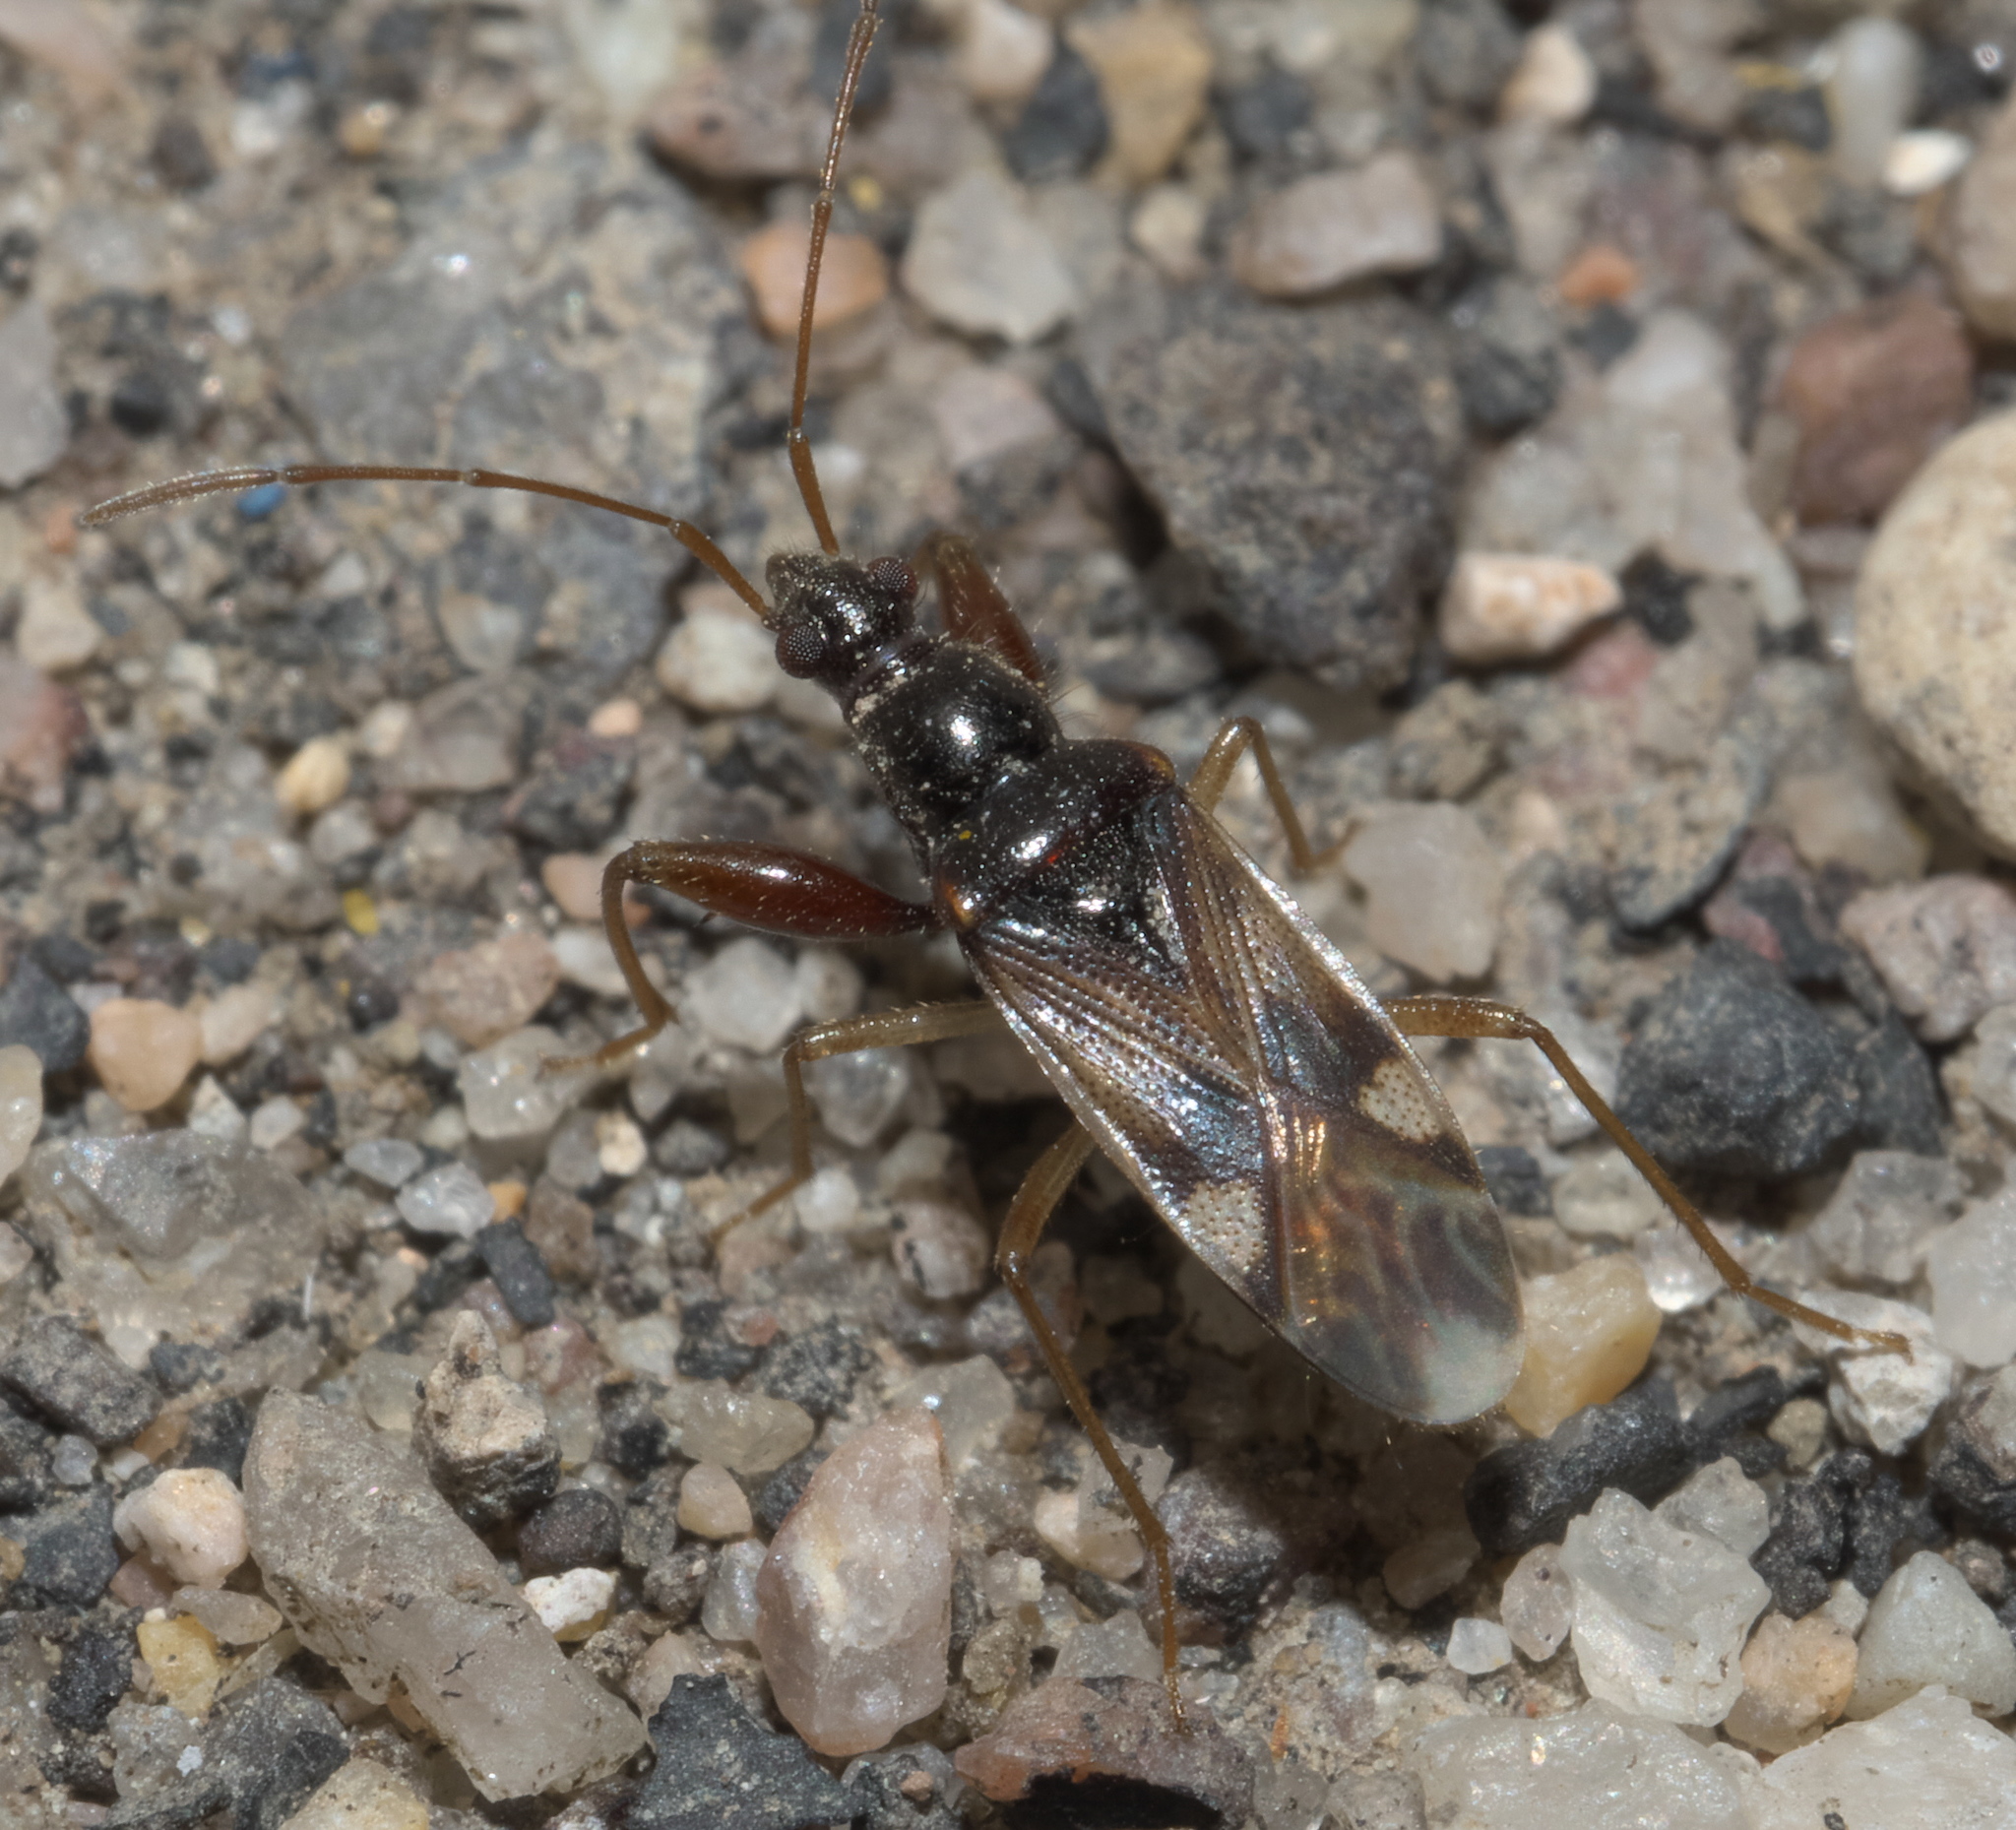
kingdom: Animalia
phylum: Arthropoda
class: Insecta
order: Hemiptera
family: Rhyparochromidae
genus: Pseudopamera
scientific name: Pseudopamera nitidula
